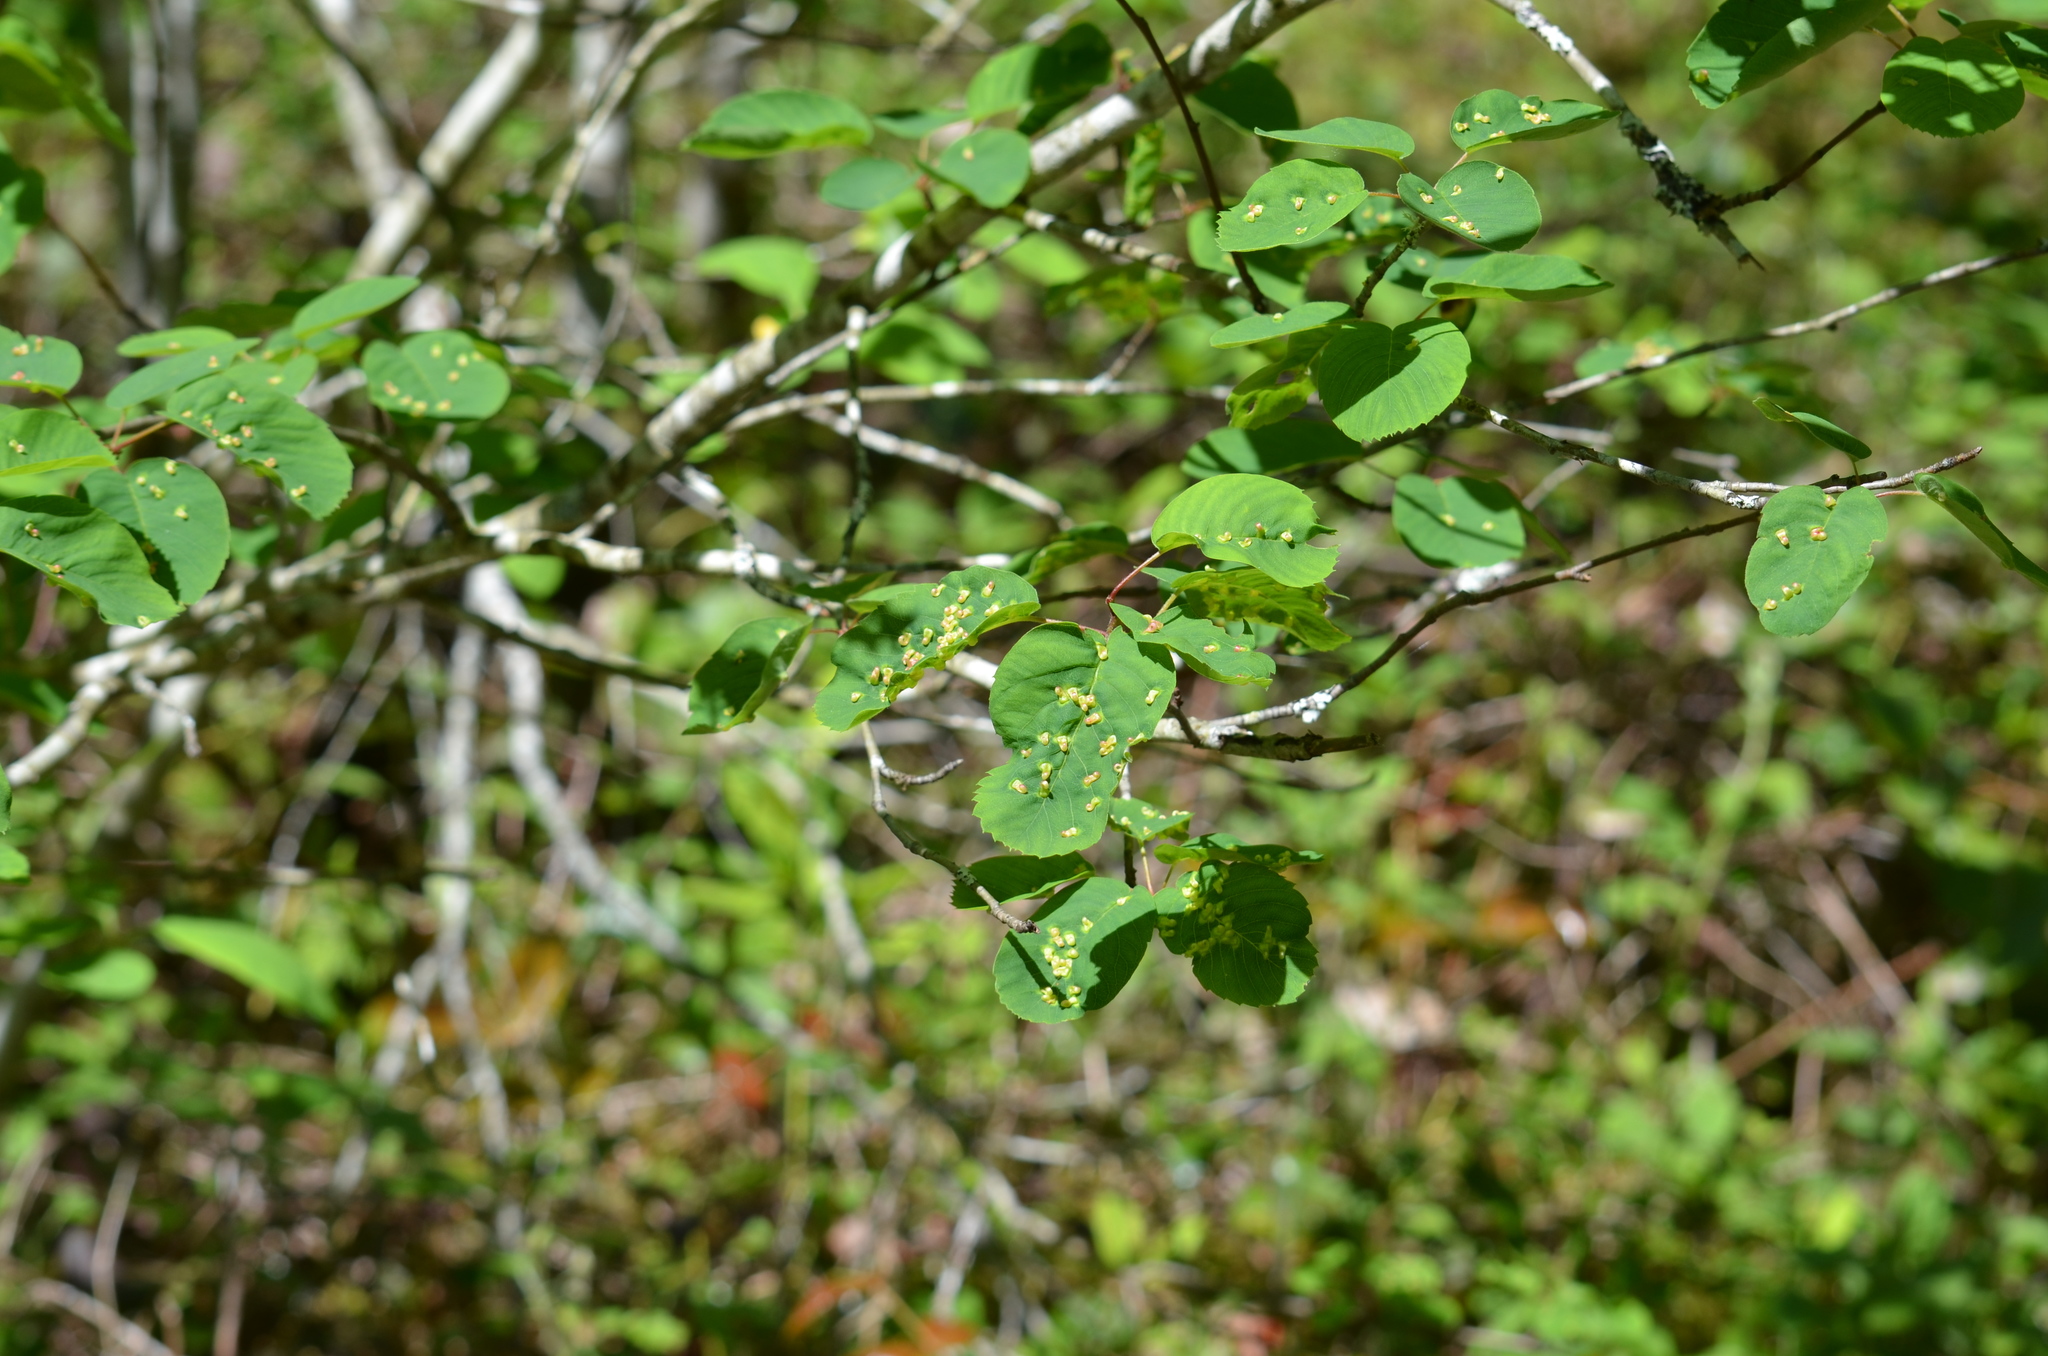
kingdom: Plantae
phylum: Tracheophyta
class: Magnoliopsida
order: Rosales
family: Rosaceae
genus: Amelanchier
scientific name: Amelanchier alnifolia
